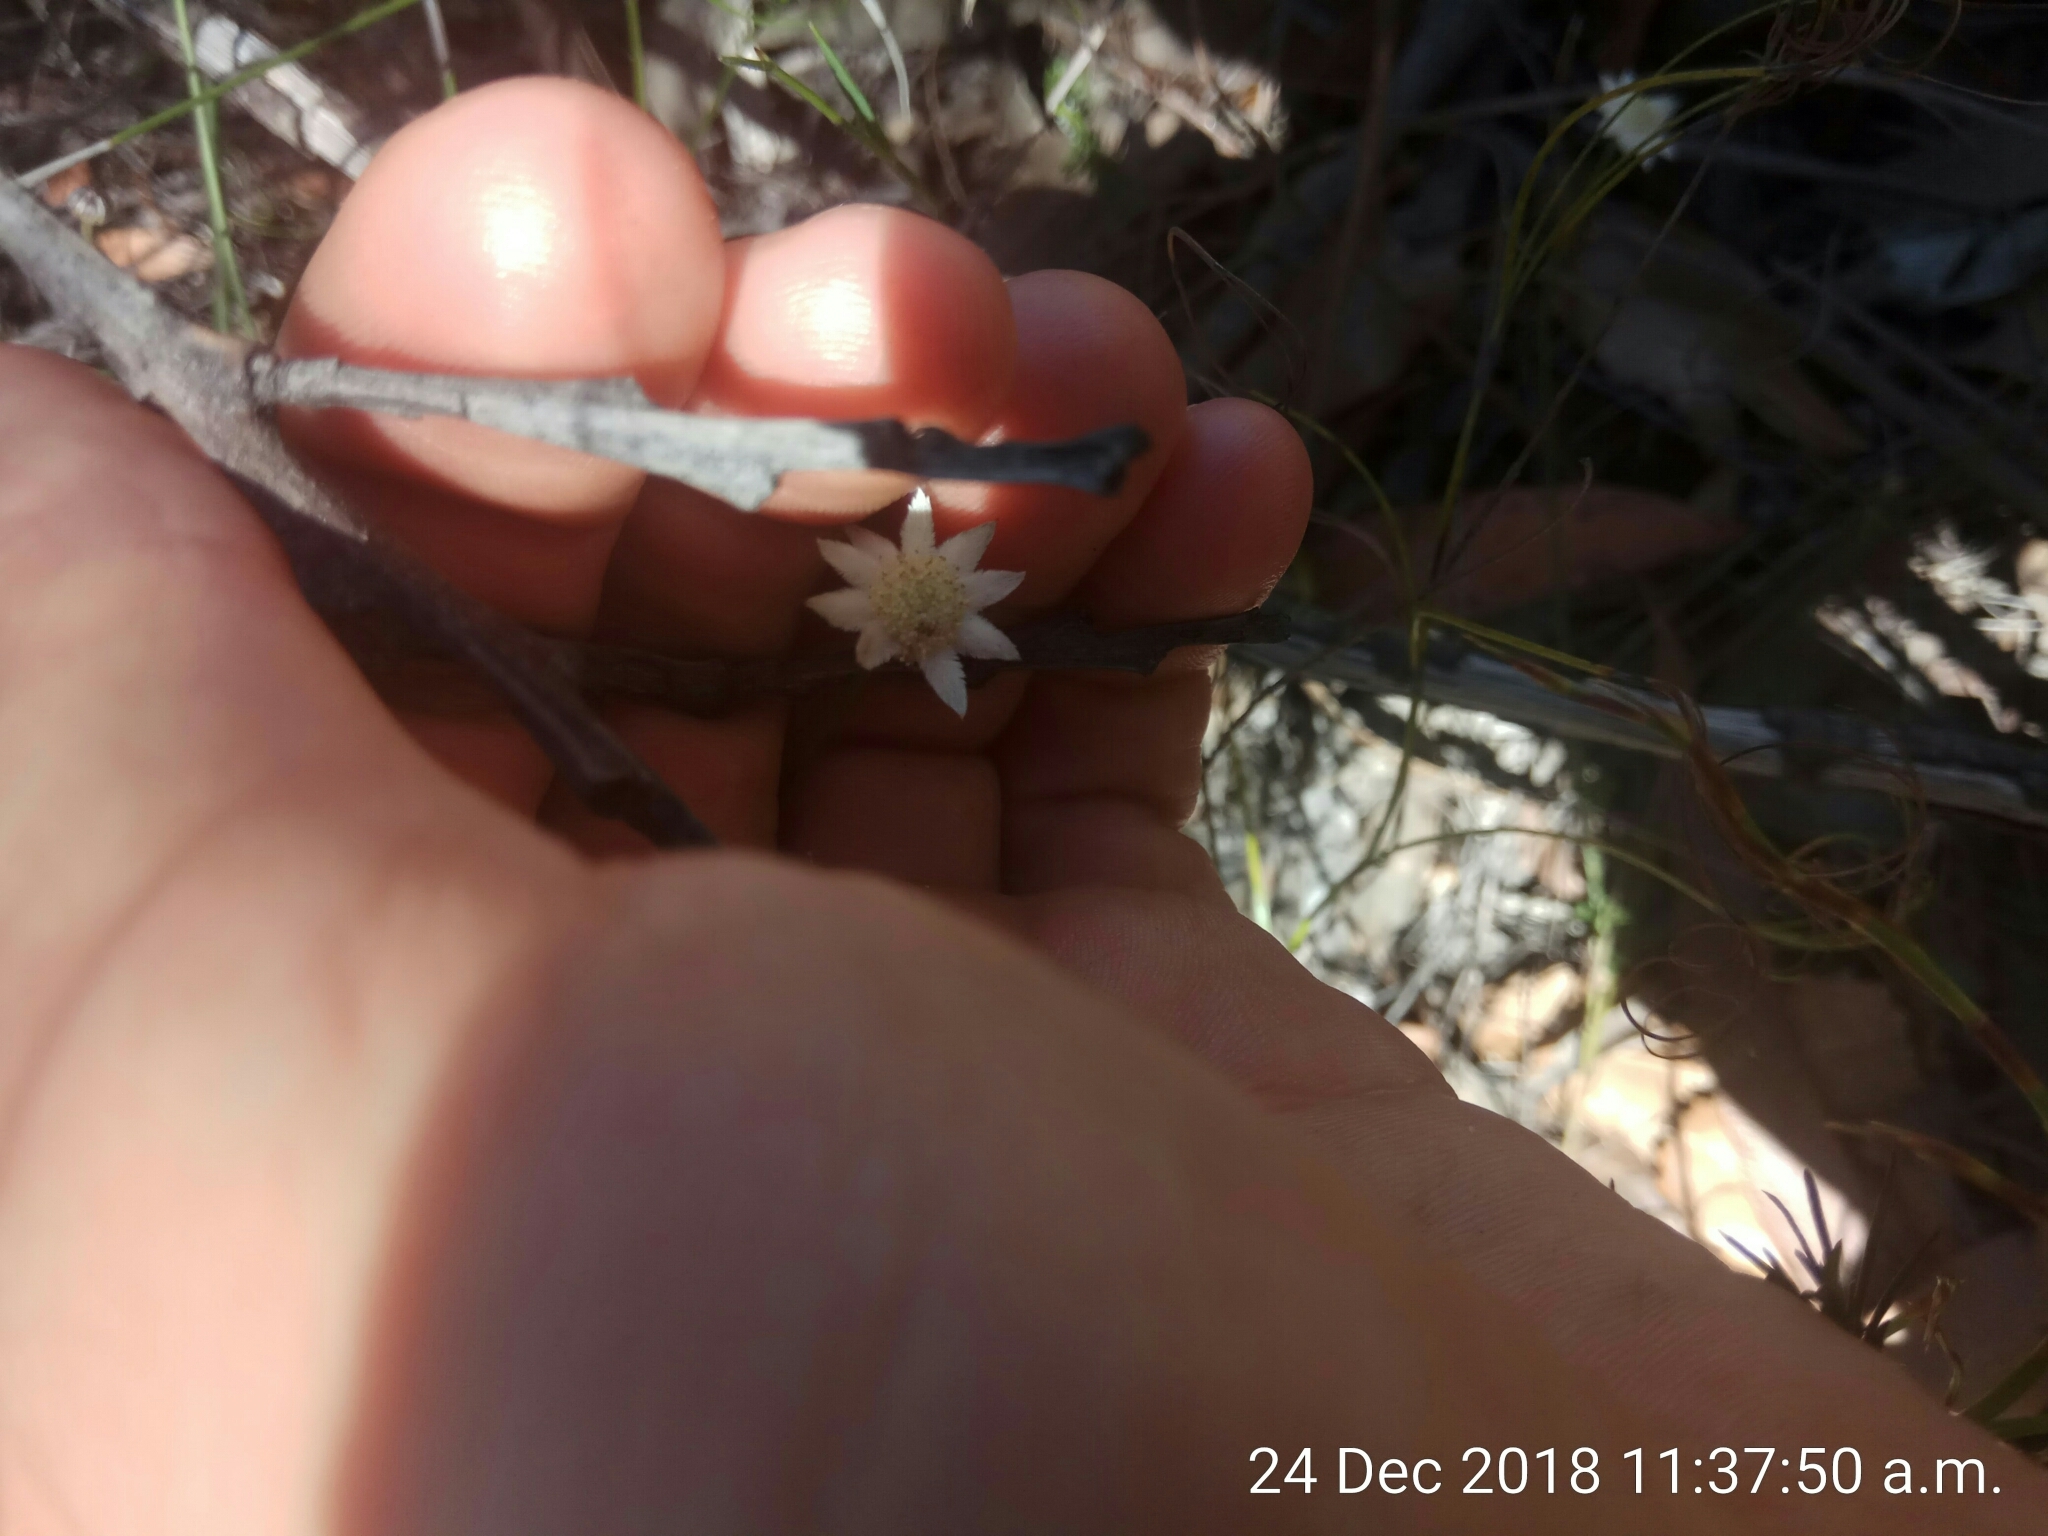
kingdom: Plantae
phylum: Tracheophyta
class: Magnoliopsida
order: Apiales
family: Apiaceae
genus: Actinotus
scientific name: Actinotus minor
